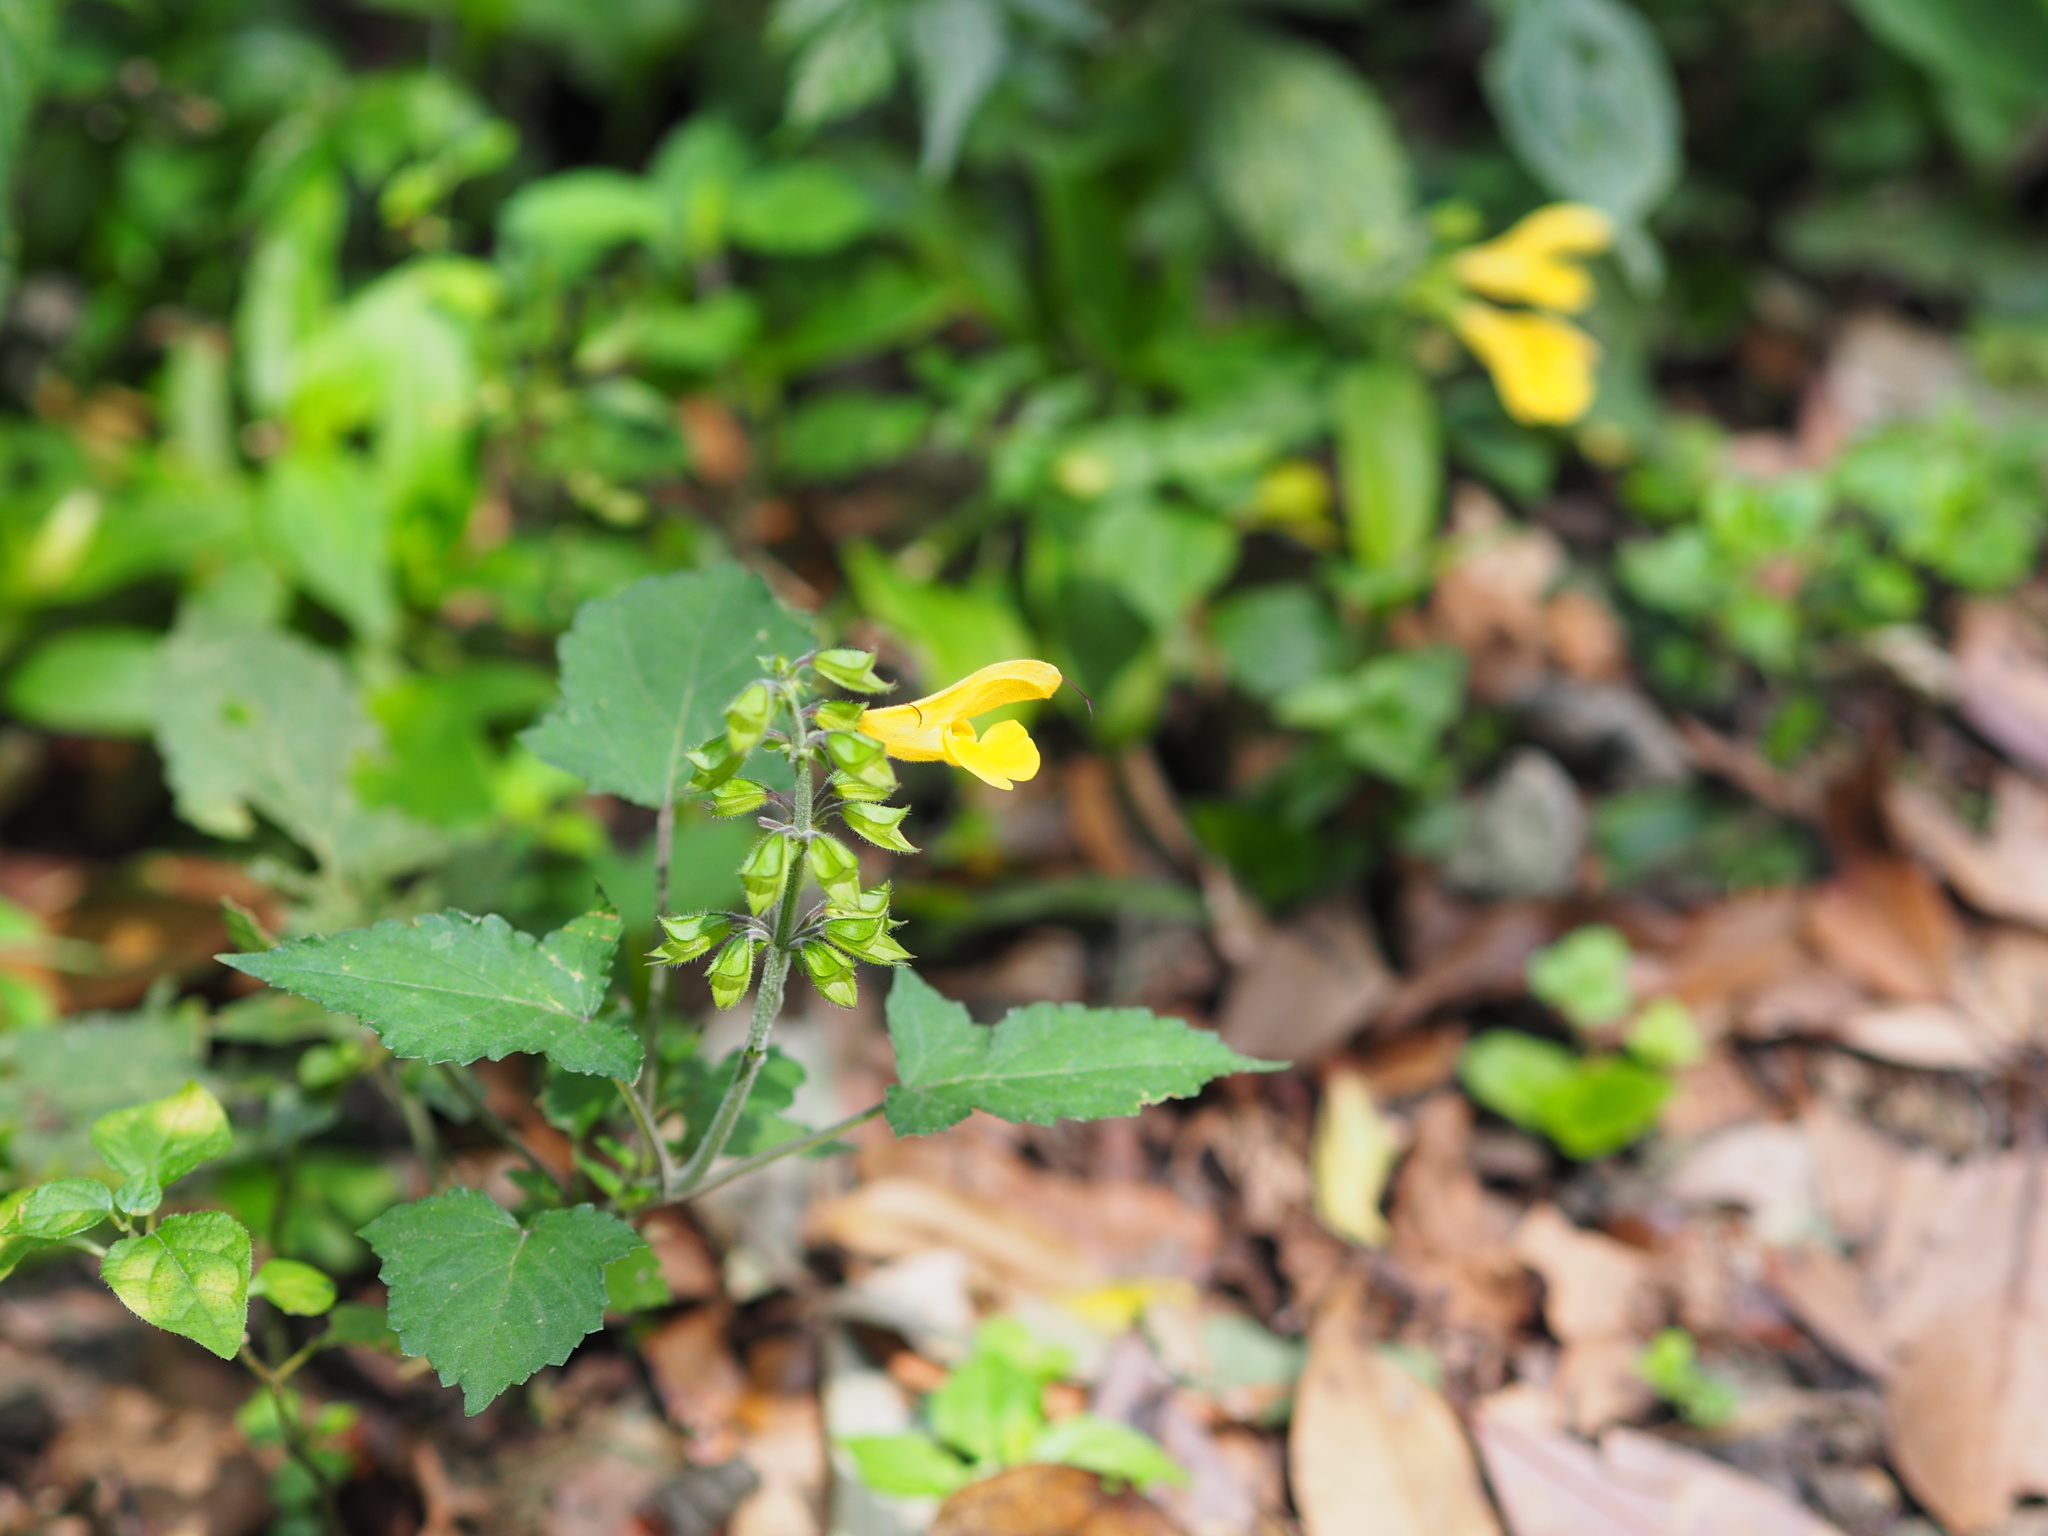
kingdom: Plantae
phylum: Tracheophyta
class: Magnoliopsida
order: Lamiales
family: Lamiaceae
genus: Salvia
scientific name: Salvia japonica
